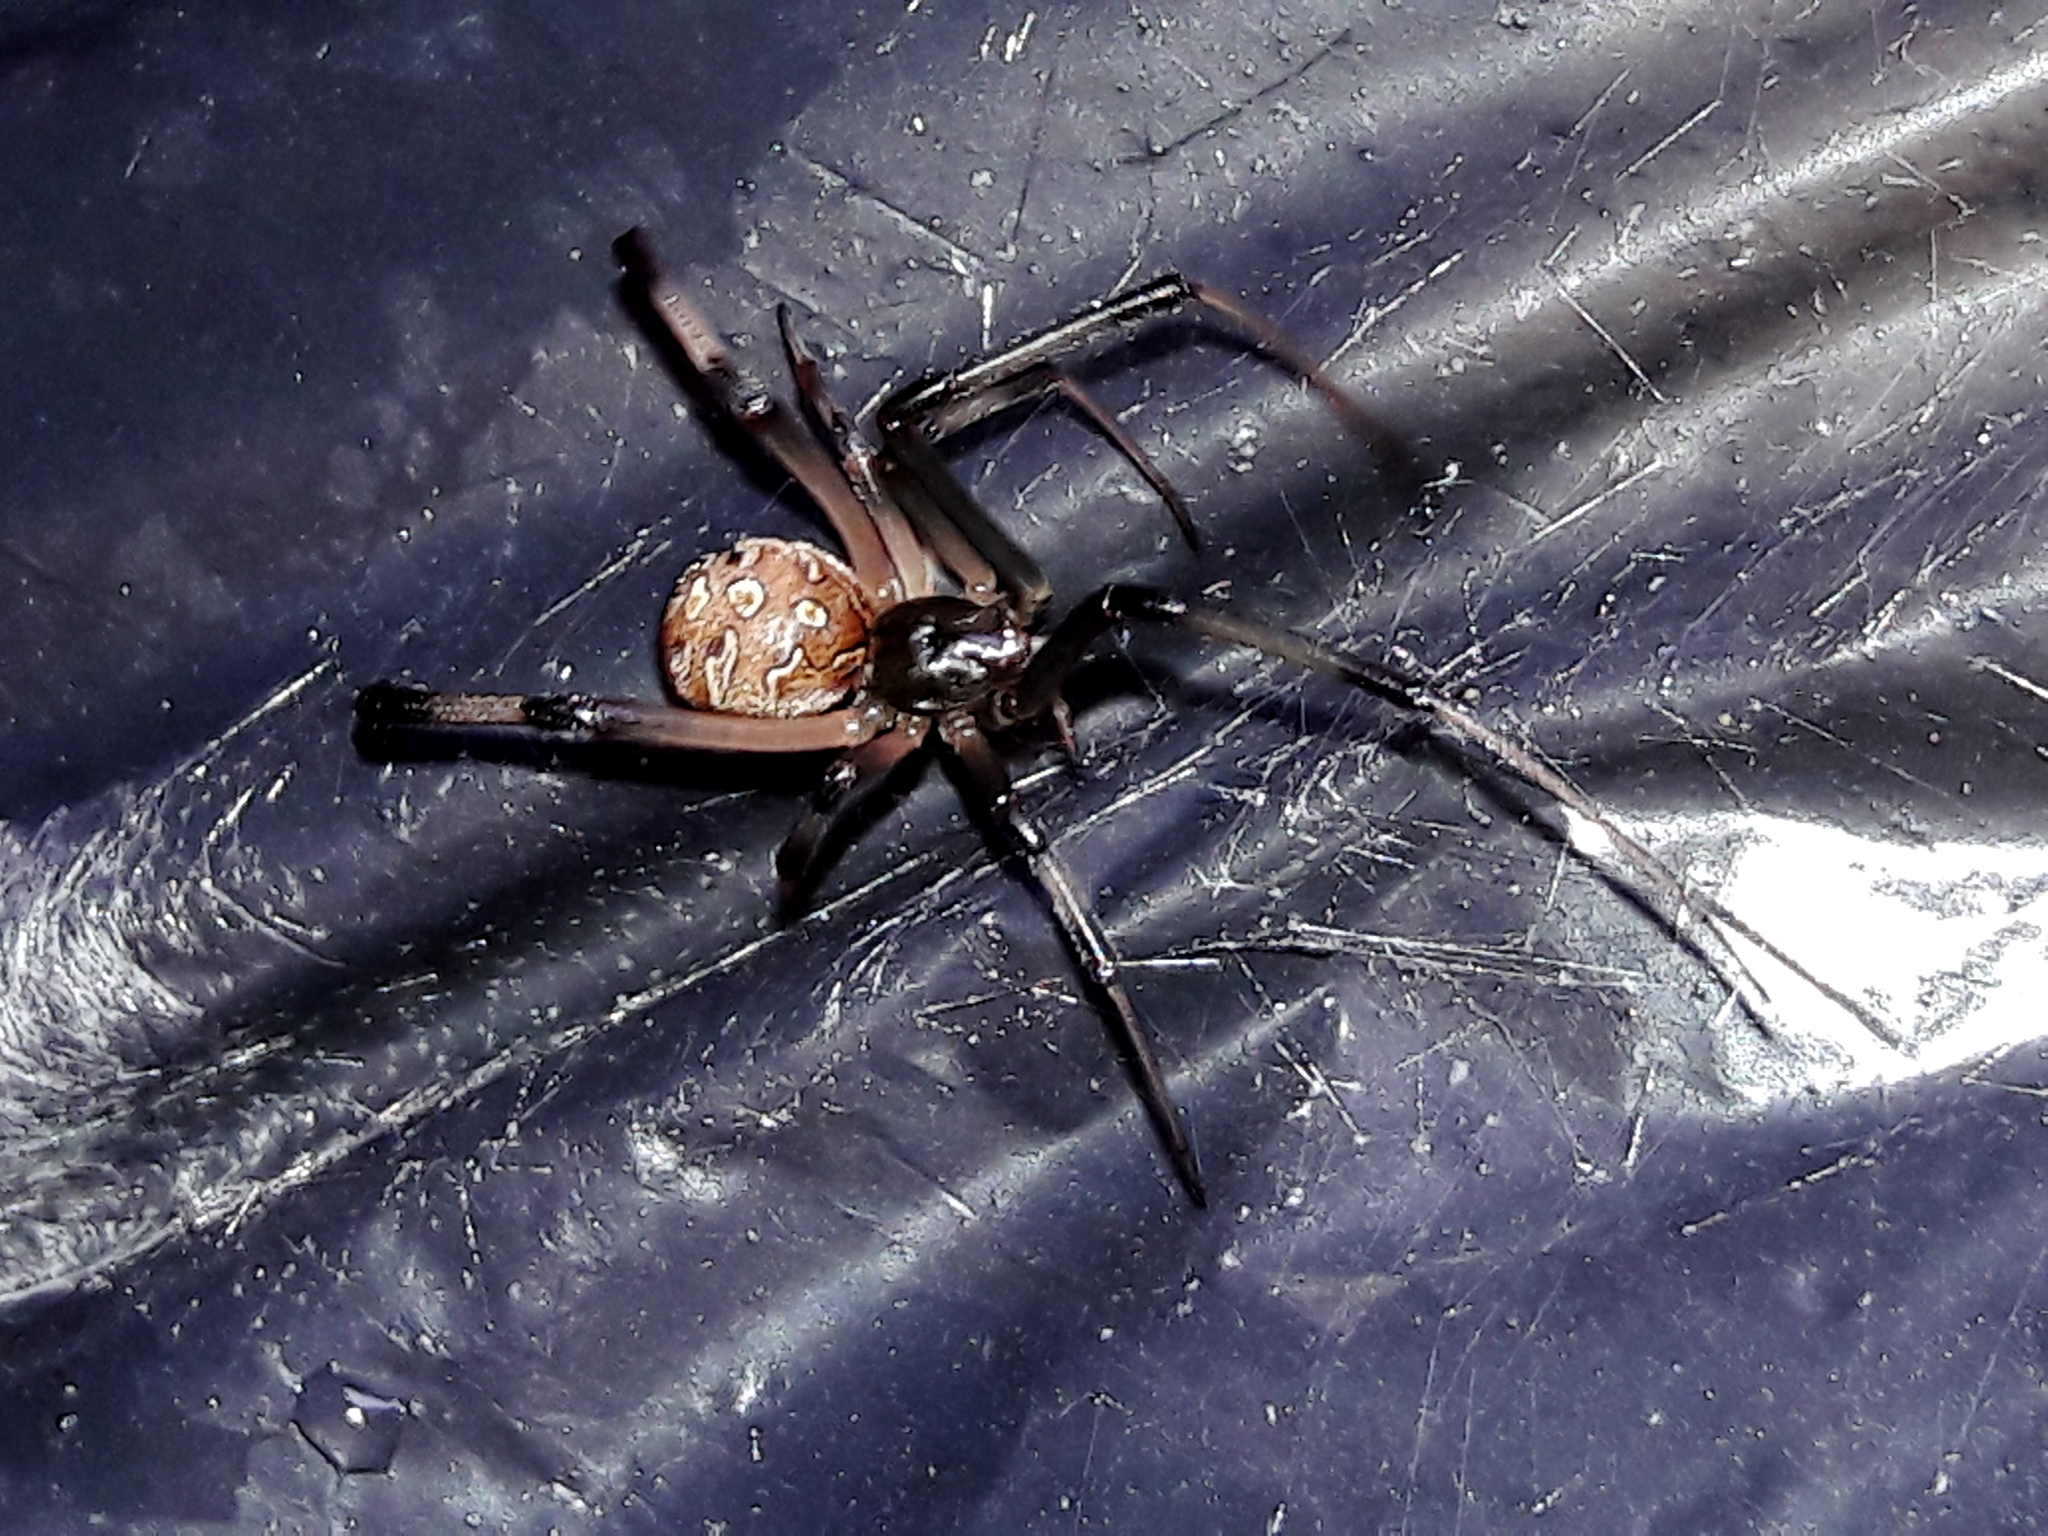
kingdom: Animalia
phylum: Arthropoda
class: Arachnida
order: Araneae
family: Theridiidae
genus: Latrodectus
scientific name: Latrodectus geometricus
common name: Brown widow spider
